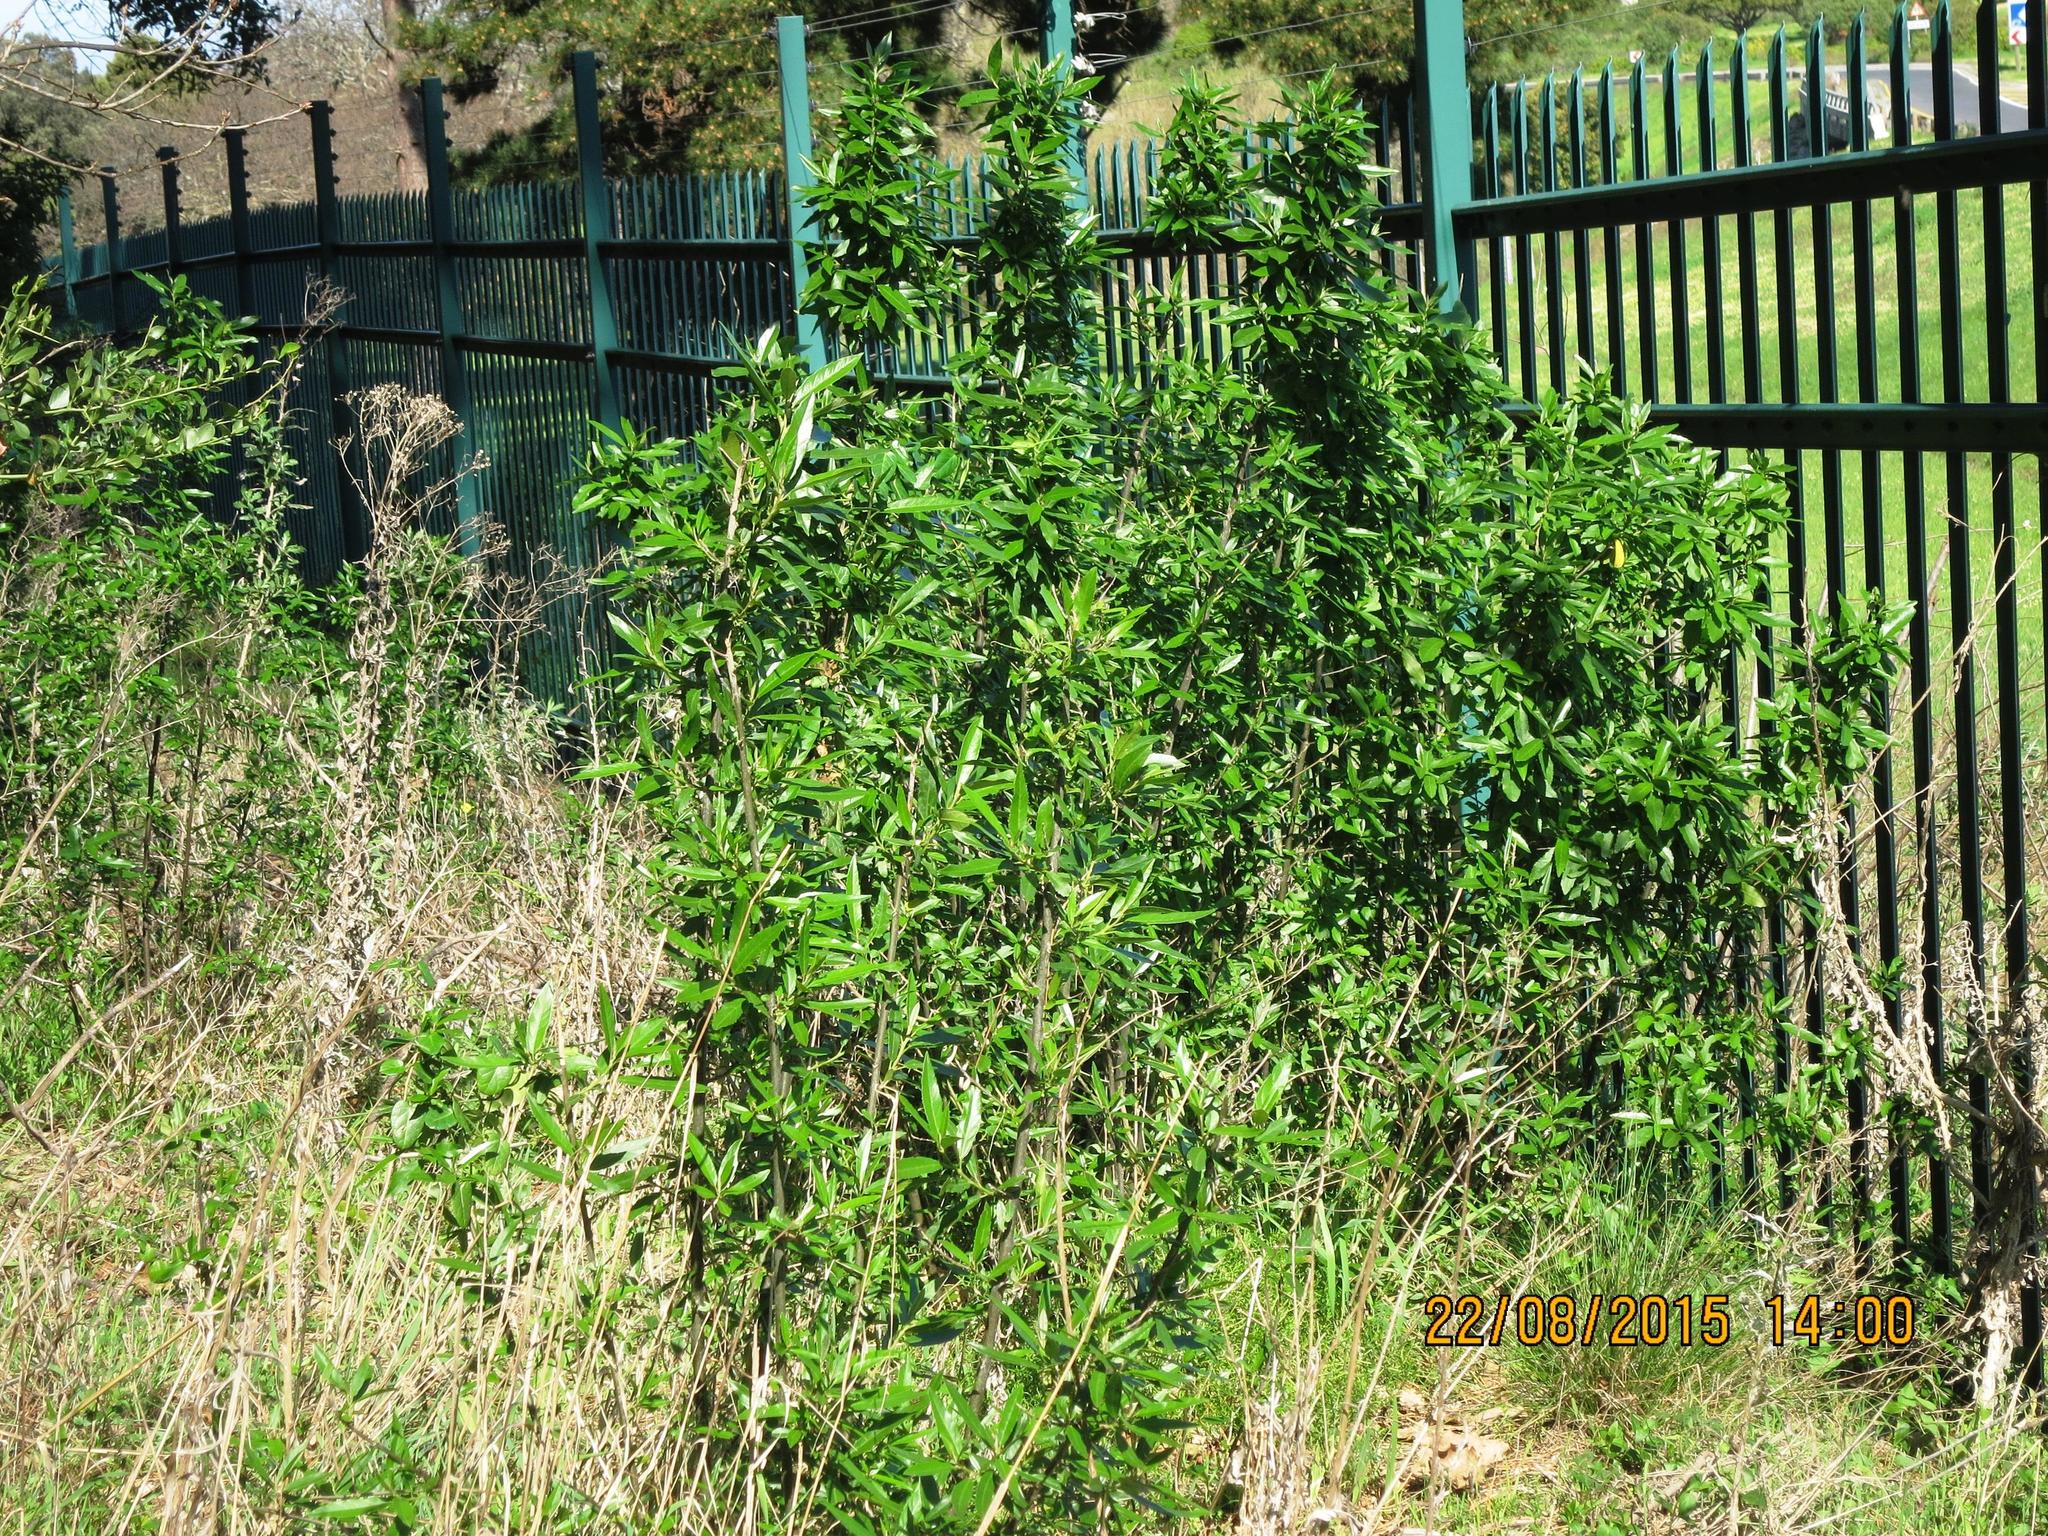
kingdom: Plantae
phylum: Tracheophyta
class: Magnoliopsida
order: Malpighiales
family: Achariaceae
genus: Kiggelaria
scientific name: Kiggelaria africana
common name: Wild peach
